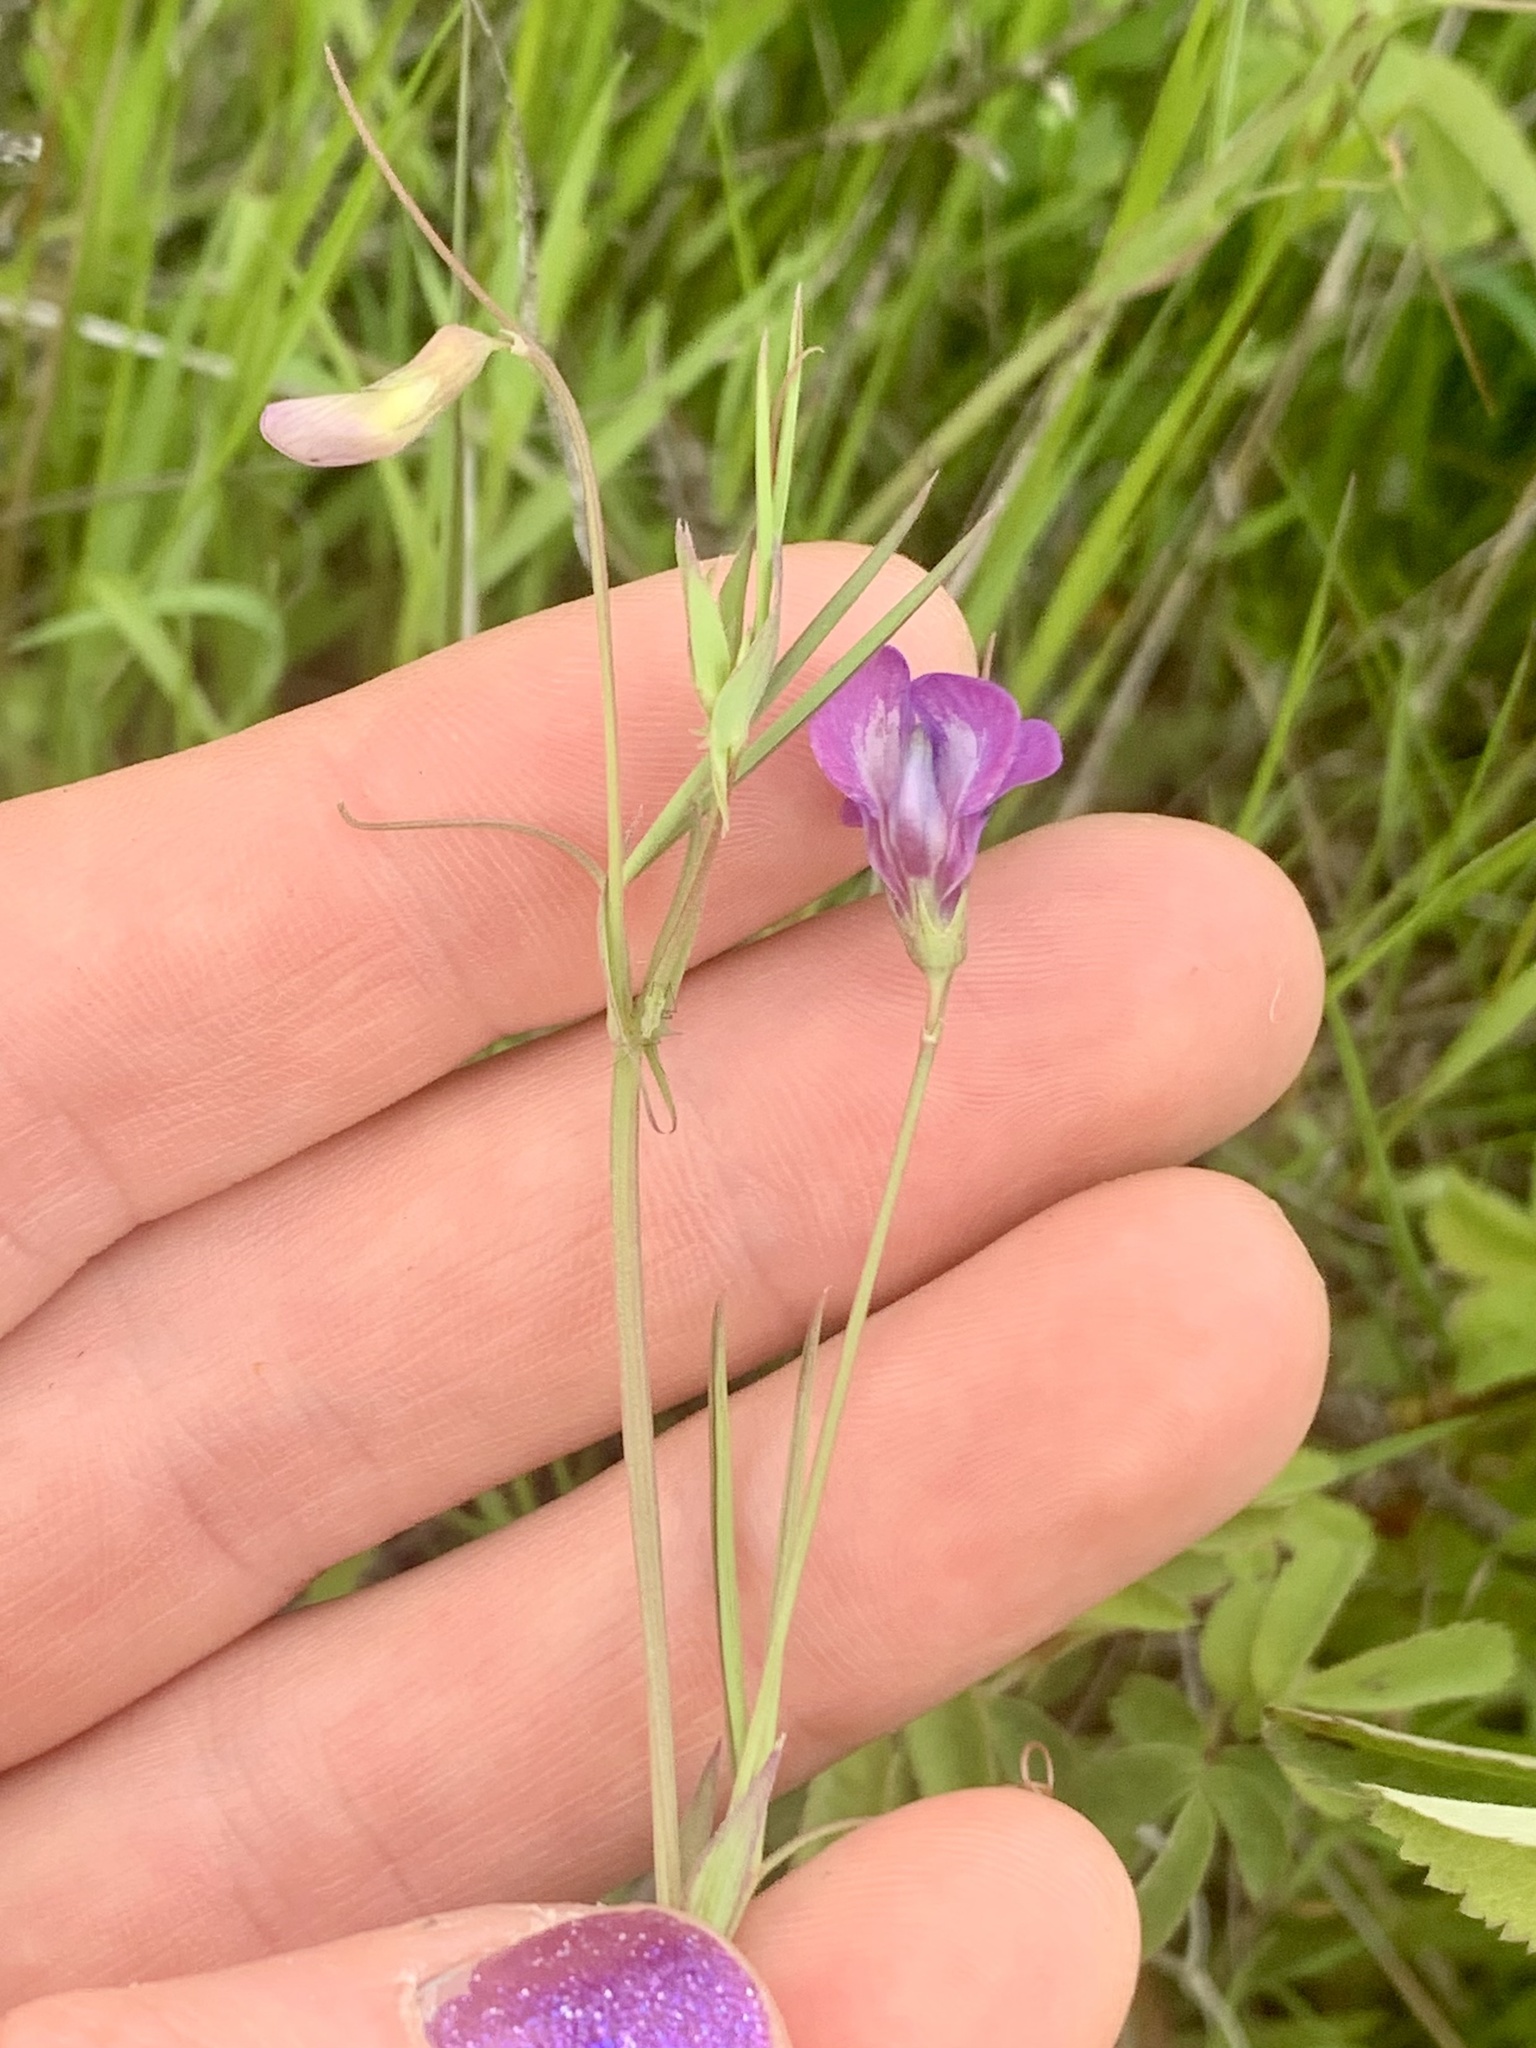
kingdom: Plantae
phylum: Tracheophyta
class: Magnoliopsida
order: Fabales
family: Fabaceae
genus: Lathyrus
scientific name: Lathyrus angulatus
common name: Angular pea
